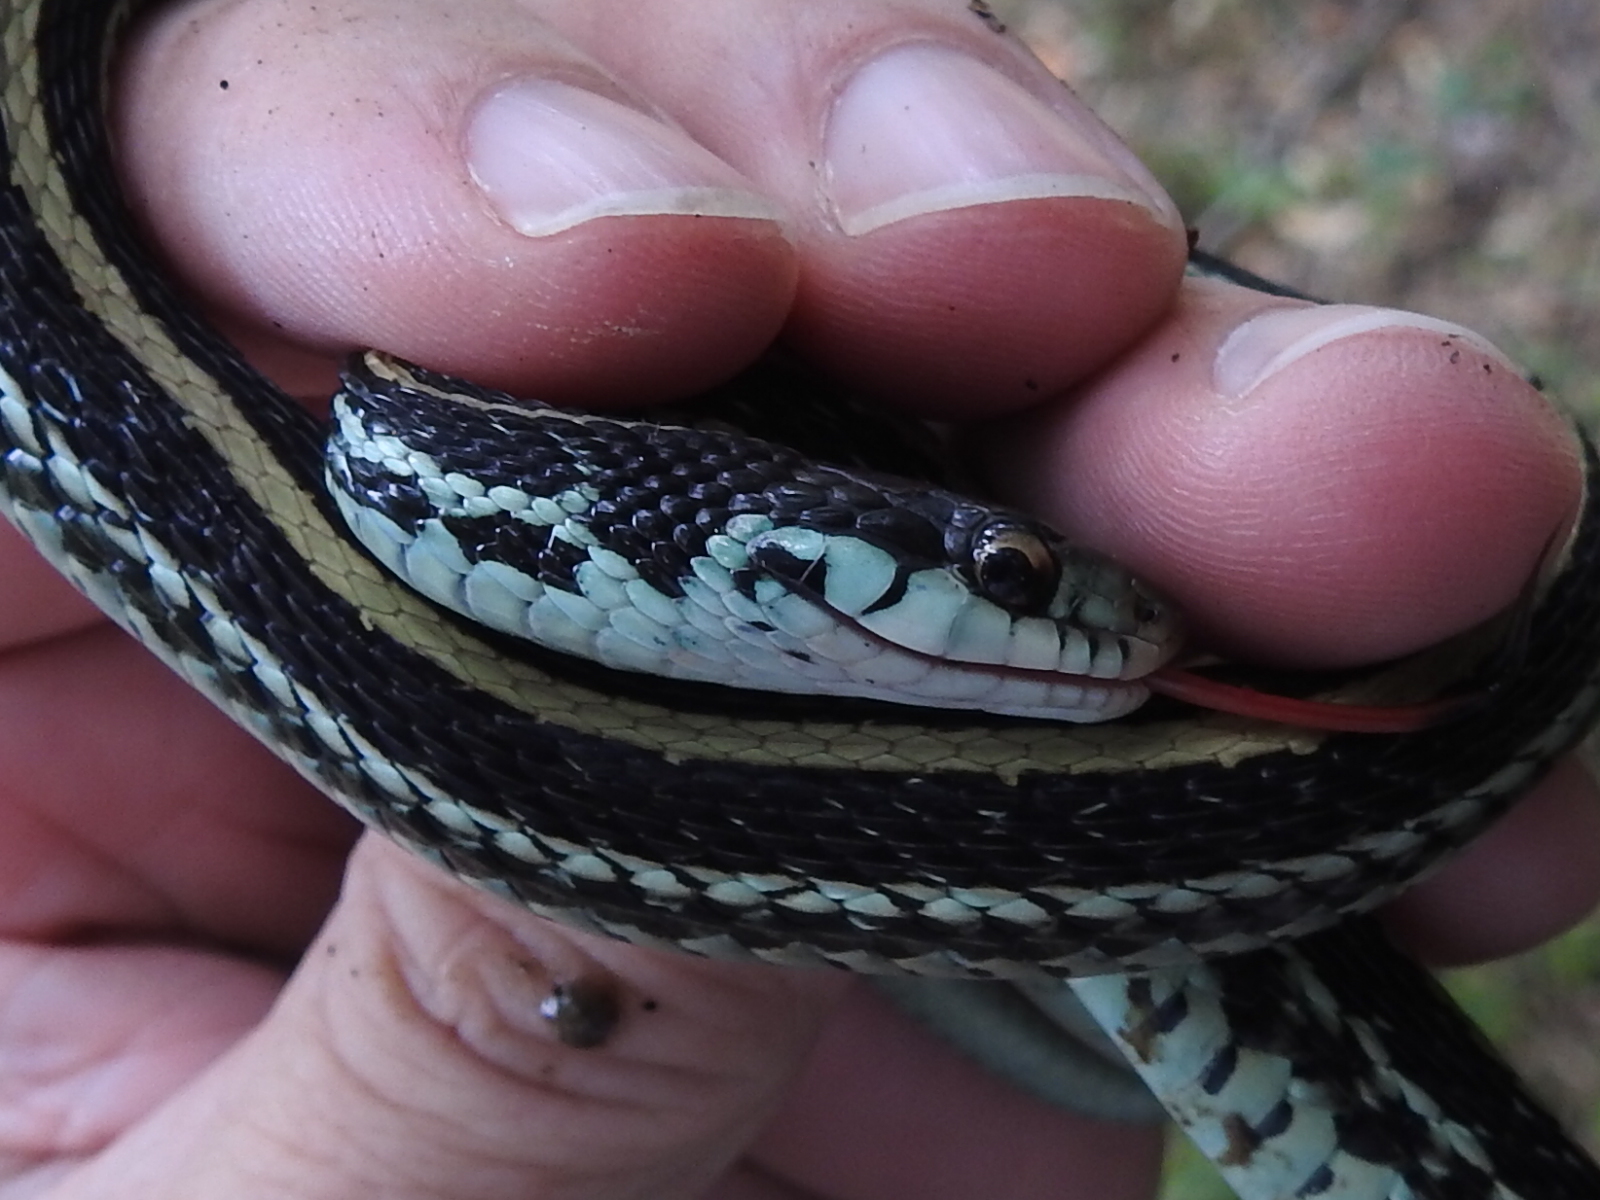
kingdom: Animalia
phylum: Chordata
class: Squamata
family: Colubridae
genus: Thamnophis
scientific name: Thamnophis sirtalis
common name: Common garter snake
